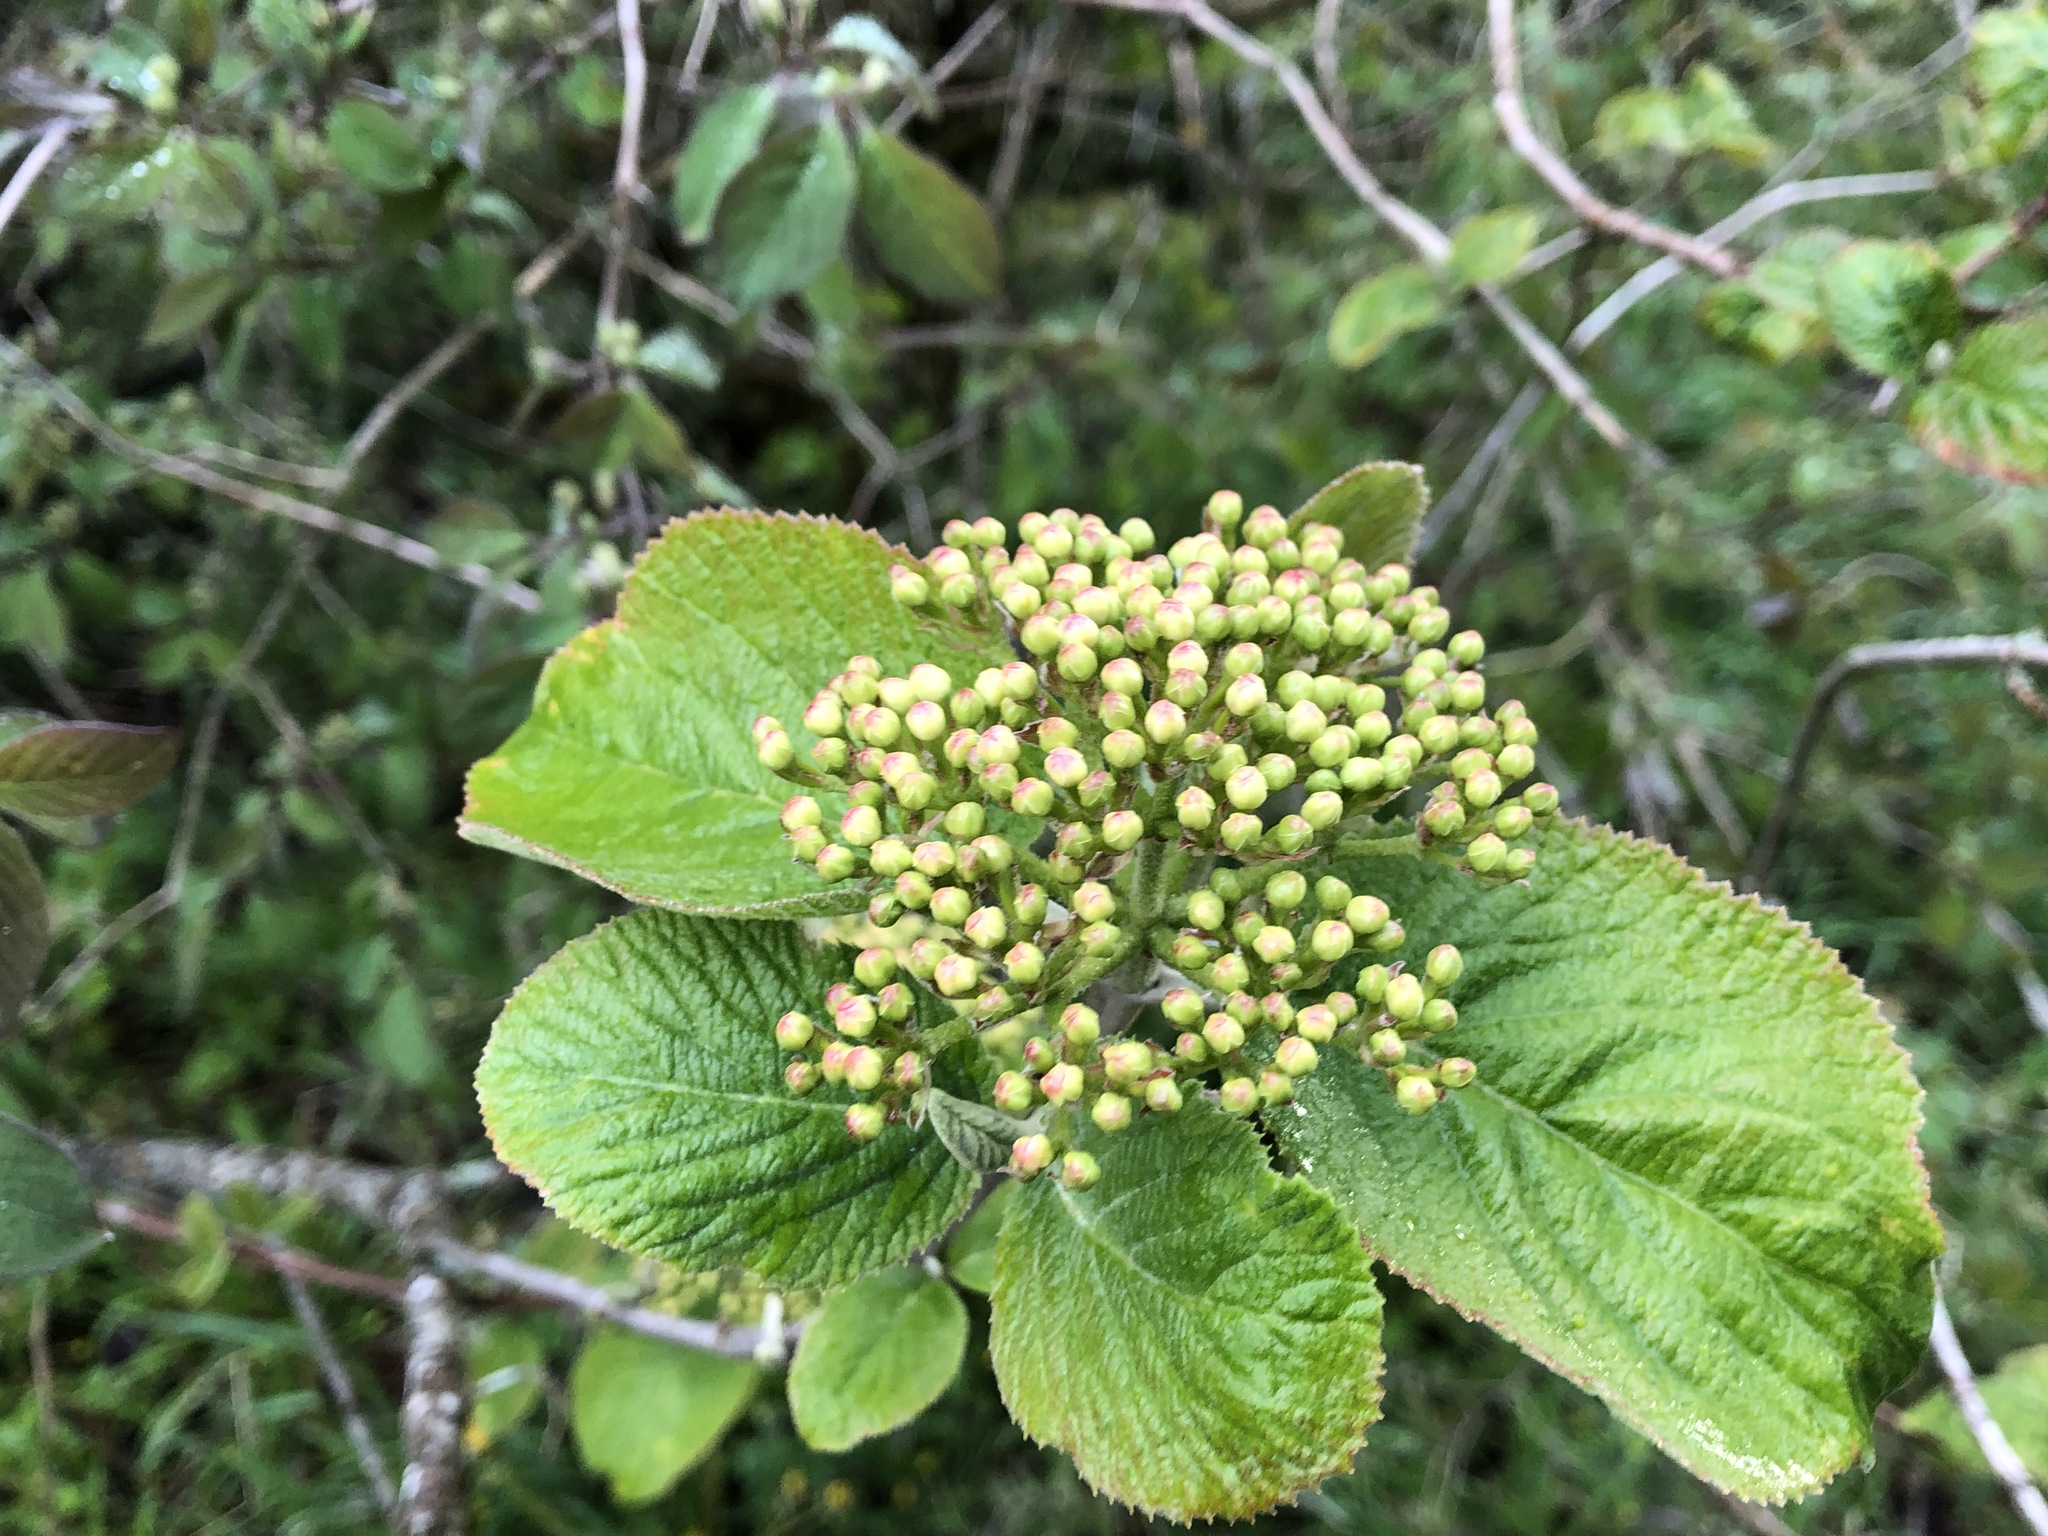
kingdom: Plantae
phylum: Tracheophyta
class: Magnoliopsida
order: Dipsacales
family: Viburnaceae
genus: Viburnum
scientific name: Viburnum lantana
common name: Wayfaring tree
